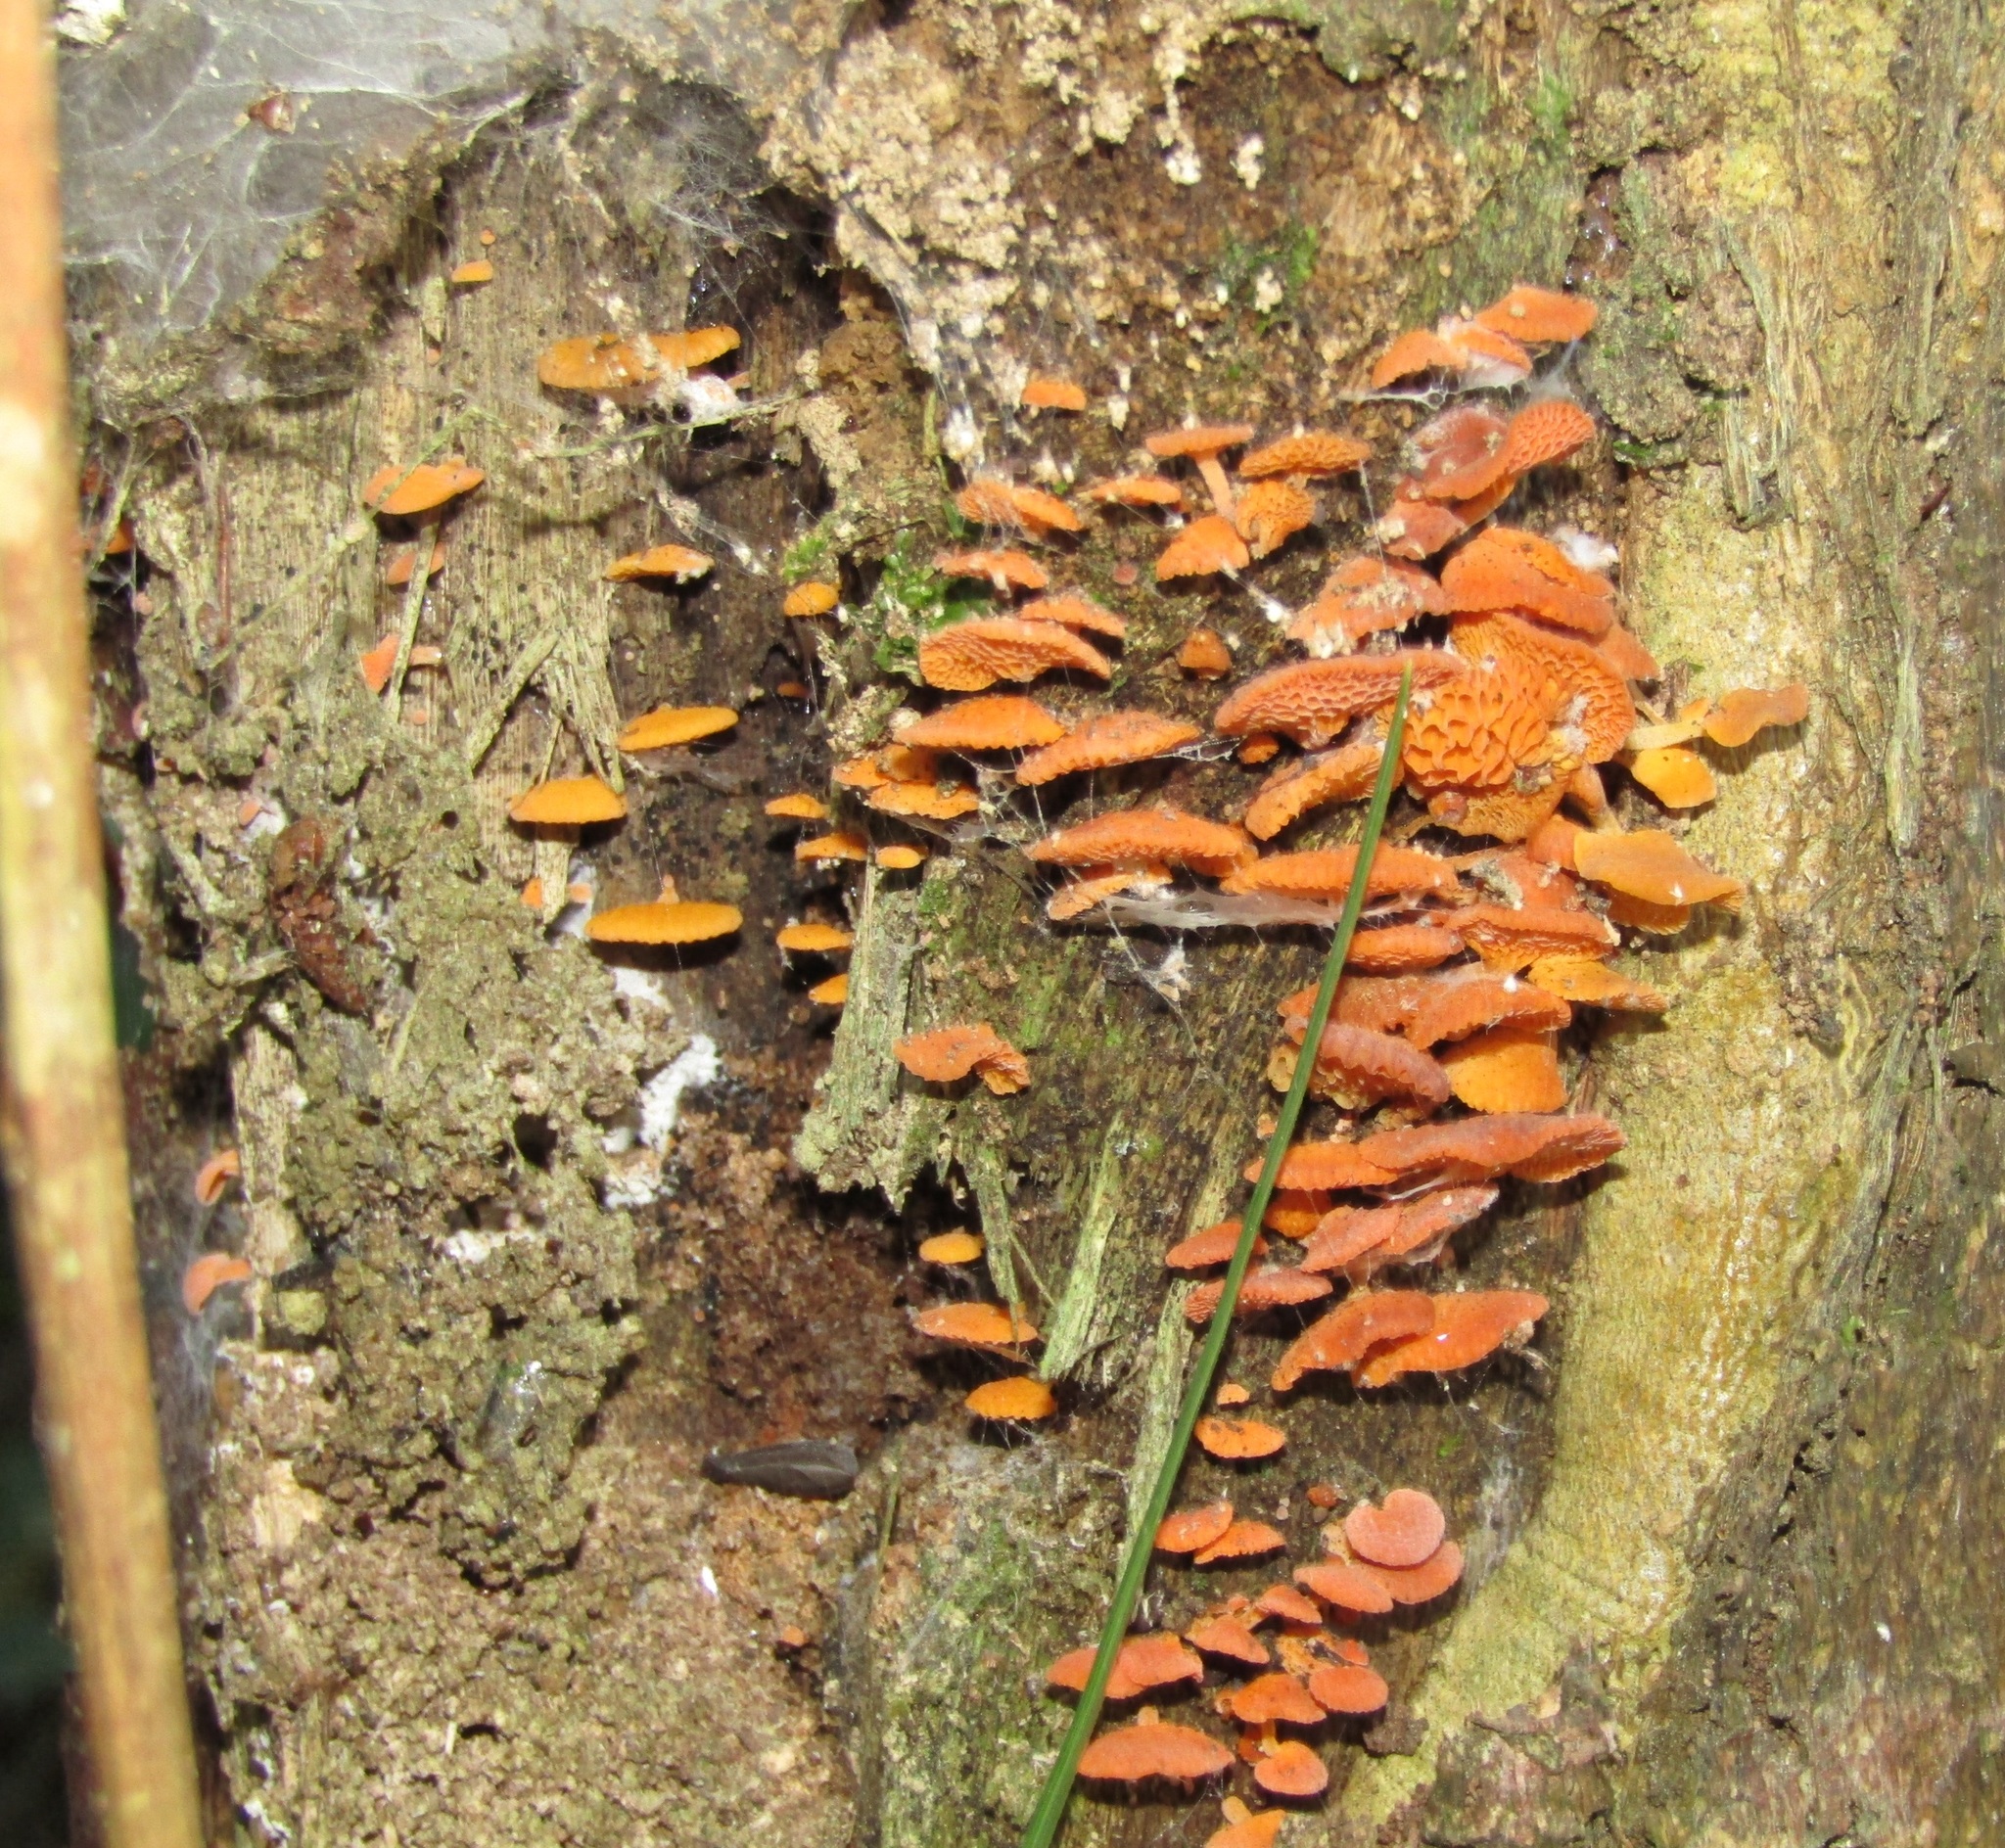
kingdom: Fungi
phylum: Basidiomycota
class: Agaricomycetes
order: Agaricales
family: Mycenaceae
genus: Favolaschia
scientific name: Favolaschia claudopus
